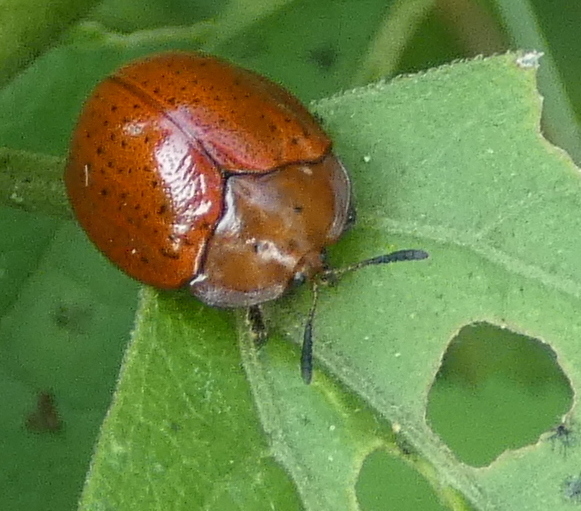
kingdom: Animalia
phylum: Arthropoda
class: Insecta
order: Coleoptera
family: Chrysomelidae
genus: Chelymorpha
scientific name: Chelymorpha subpunctata
